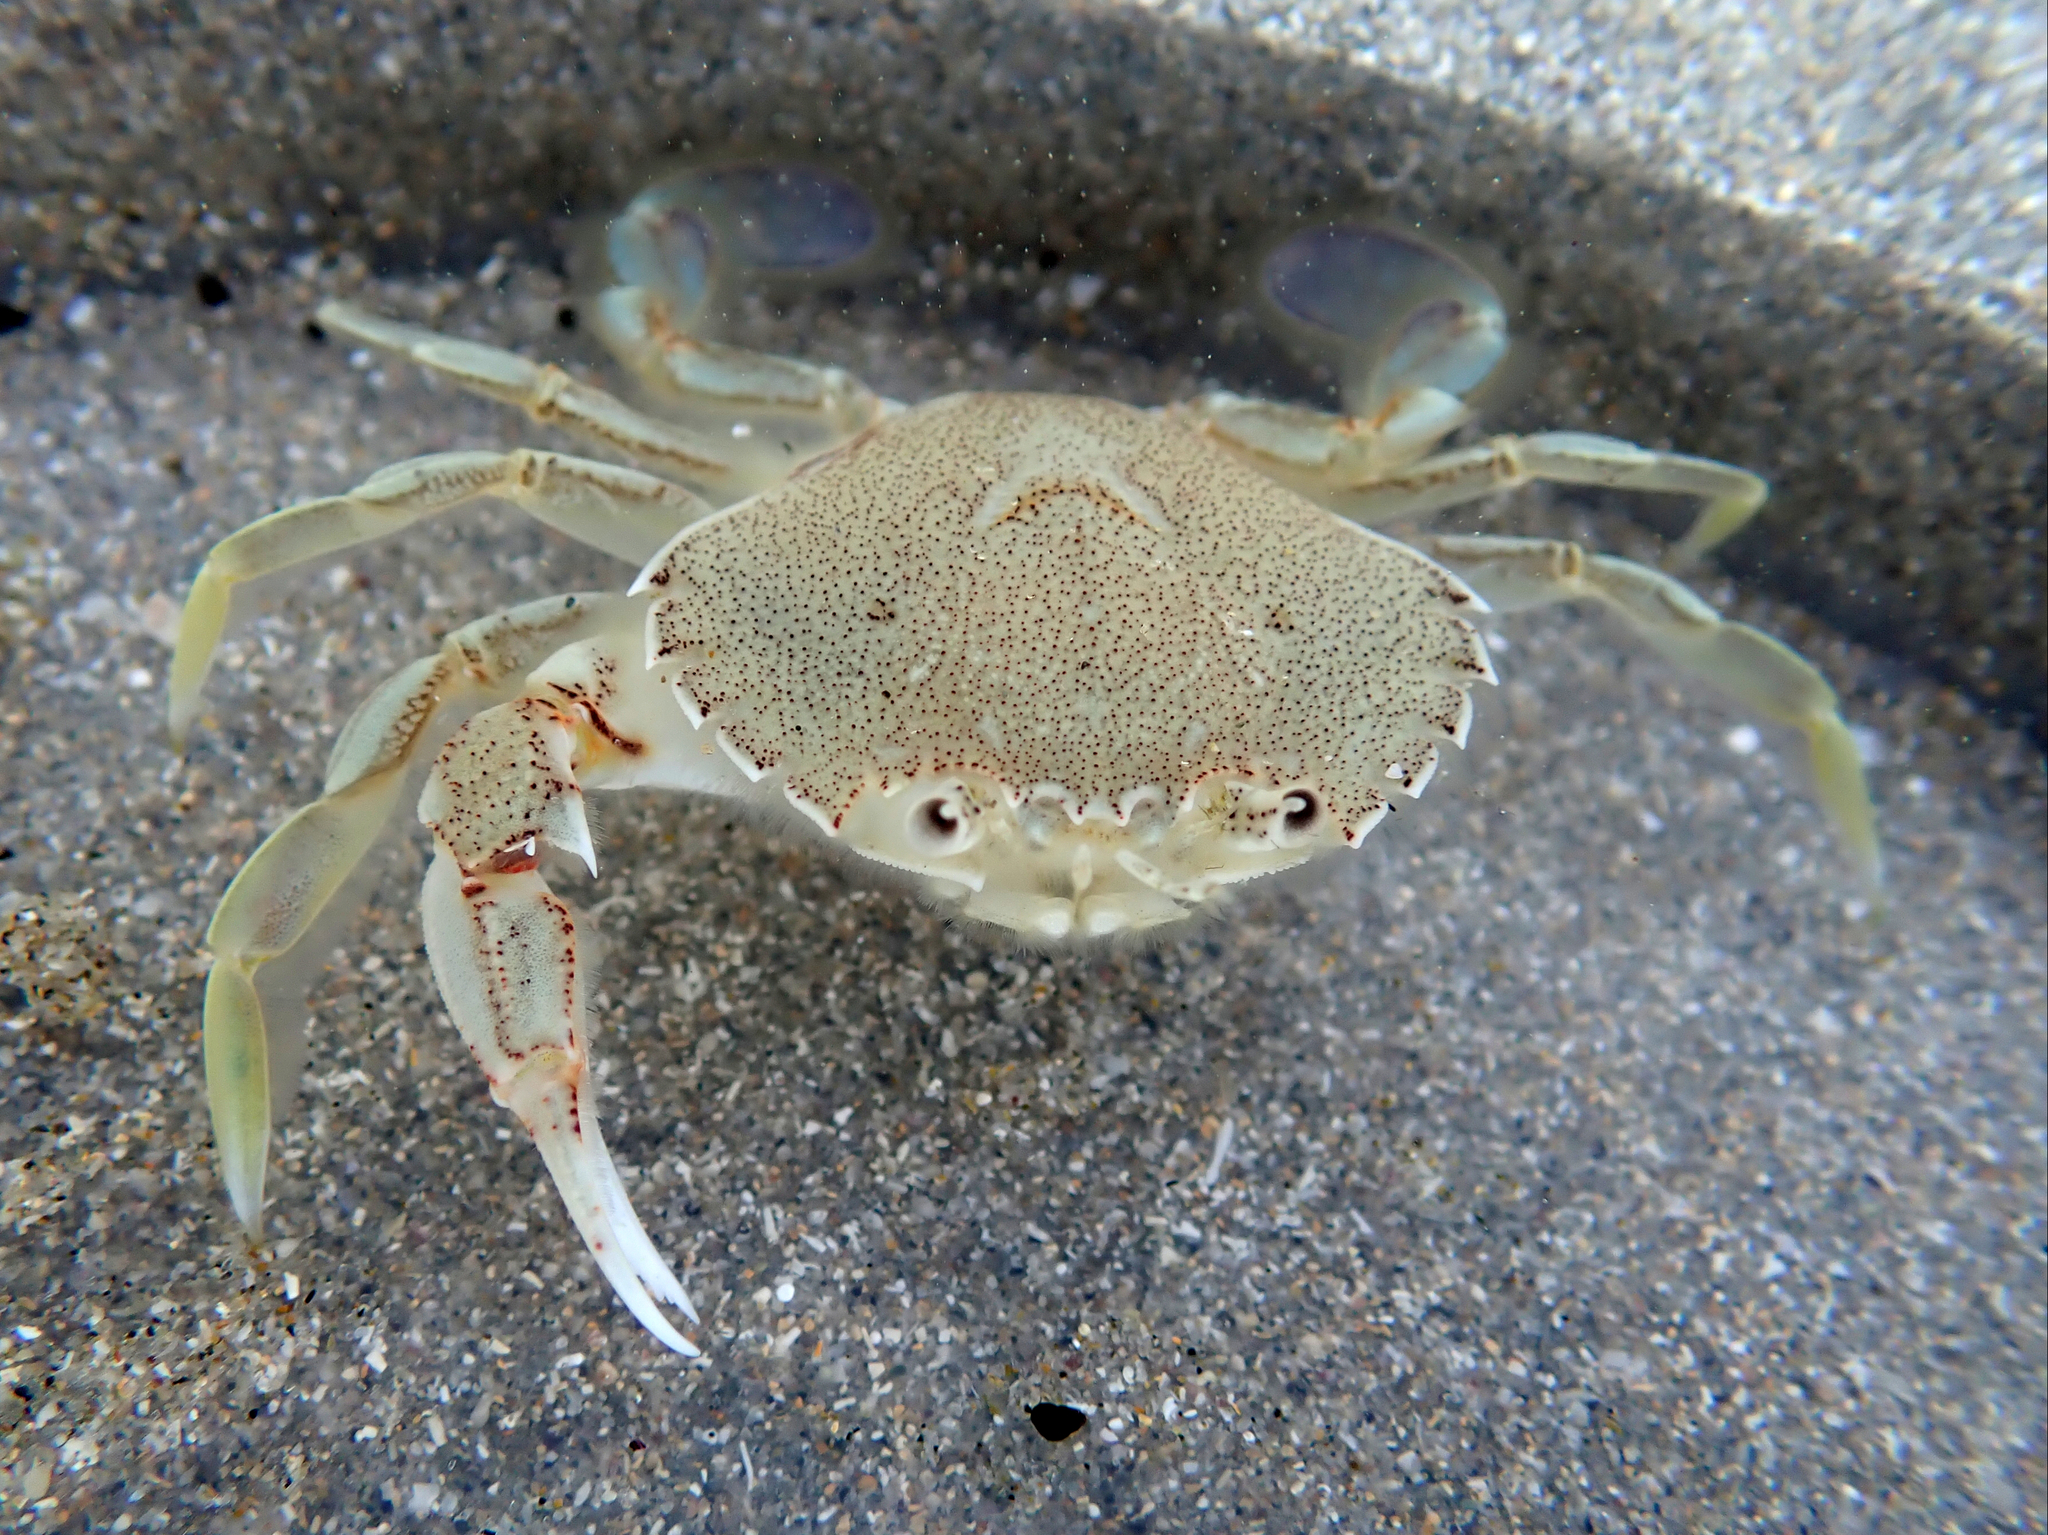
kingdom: Animalia
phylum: Arthropoda
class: Malacostraca
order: Decapoda
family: Ovalipidae
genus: Ovalipes
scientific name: Ovalipes catharus
